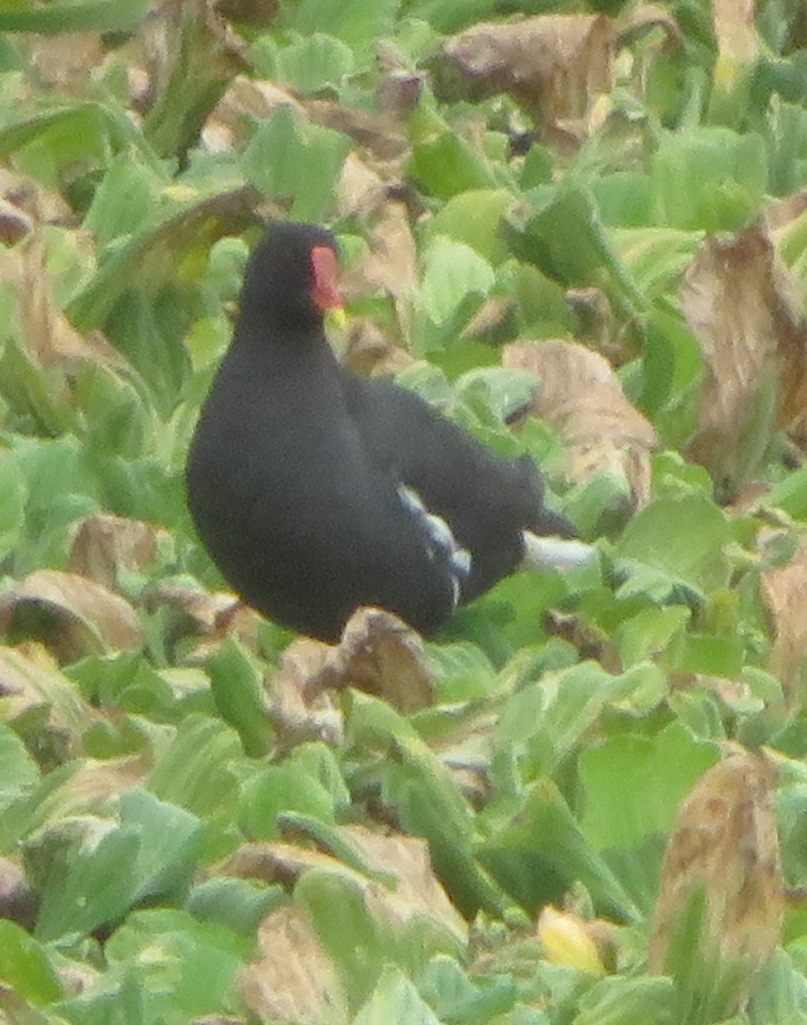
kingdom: Animalia
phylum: Chordata
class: Aves
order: Gruiformes
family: Rallidae
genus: Gallinula
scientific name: Gallinula chloropus
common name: Common moorhen
